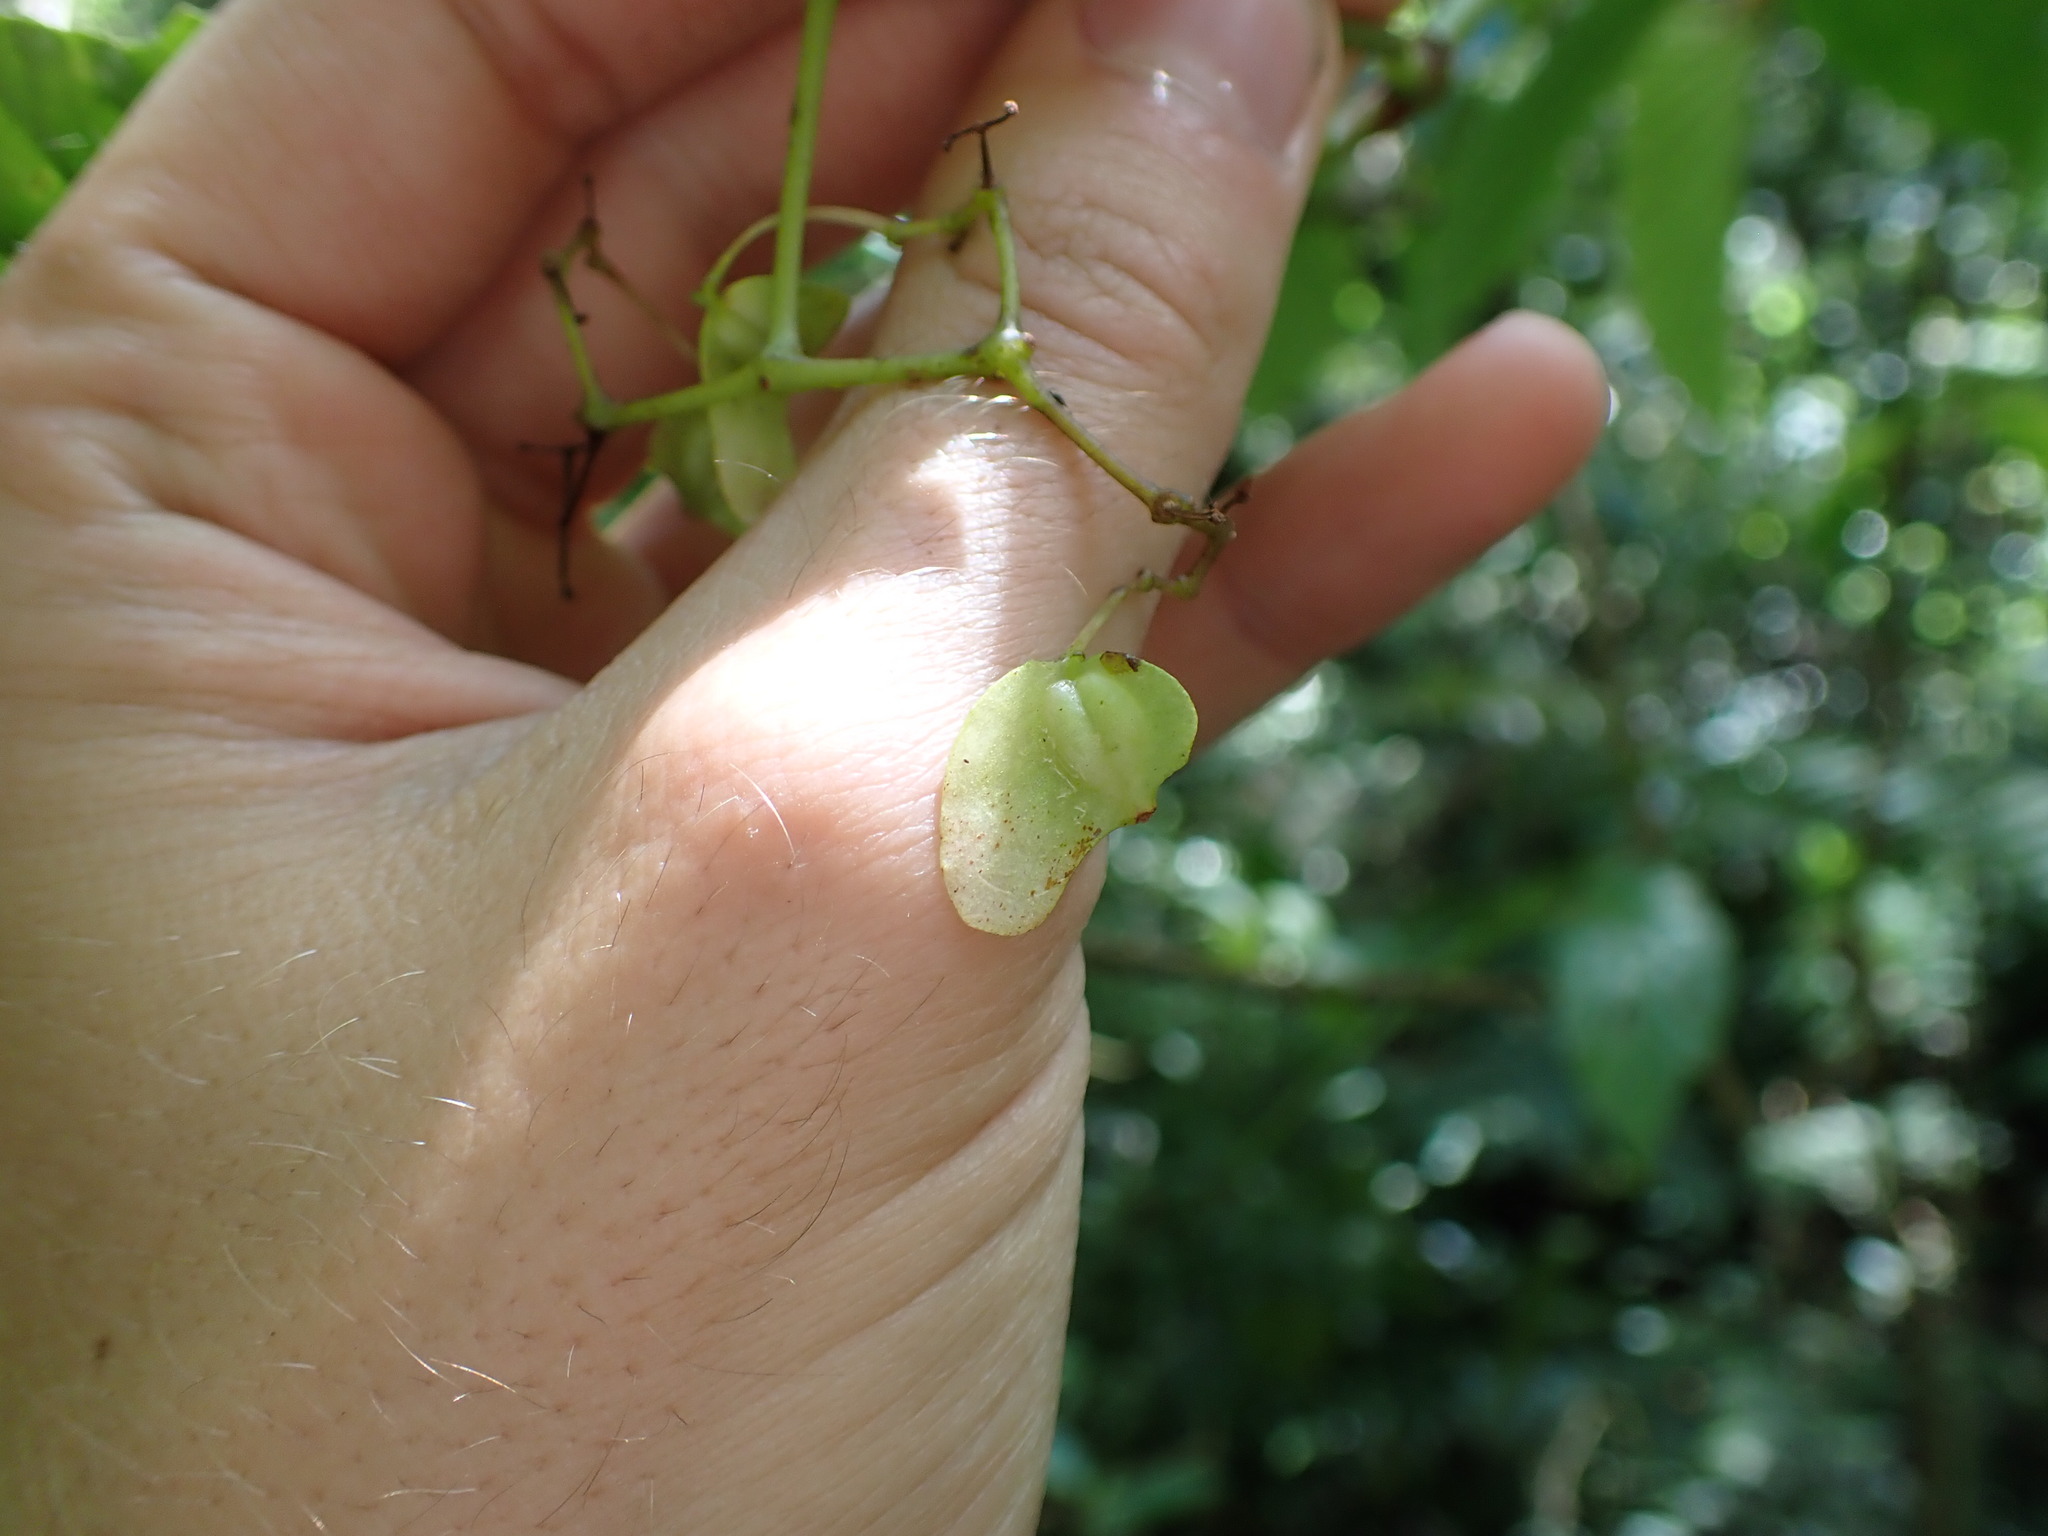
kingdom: Plantae
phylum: Tracheophyta
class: Magnoliopsida
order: Cucurbitales
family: Begoniaceae
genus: Begonia
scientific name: Begonia peruviana
